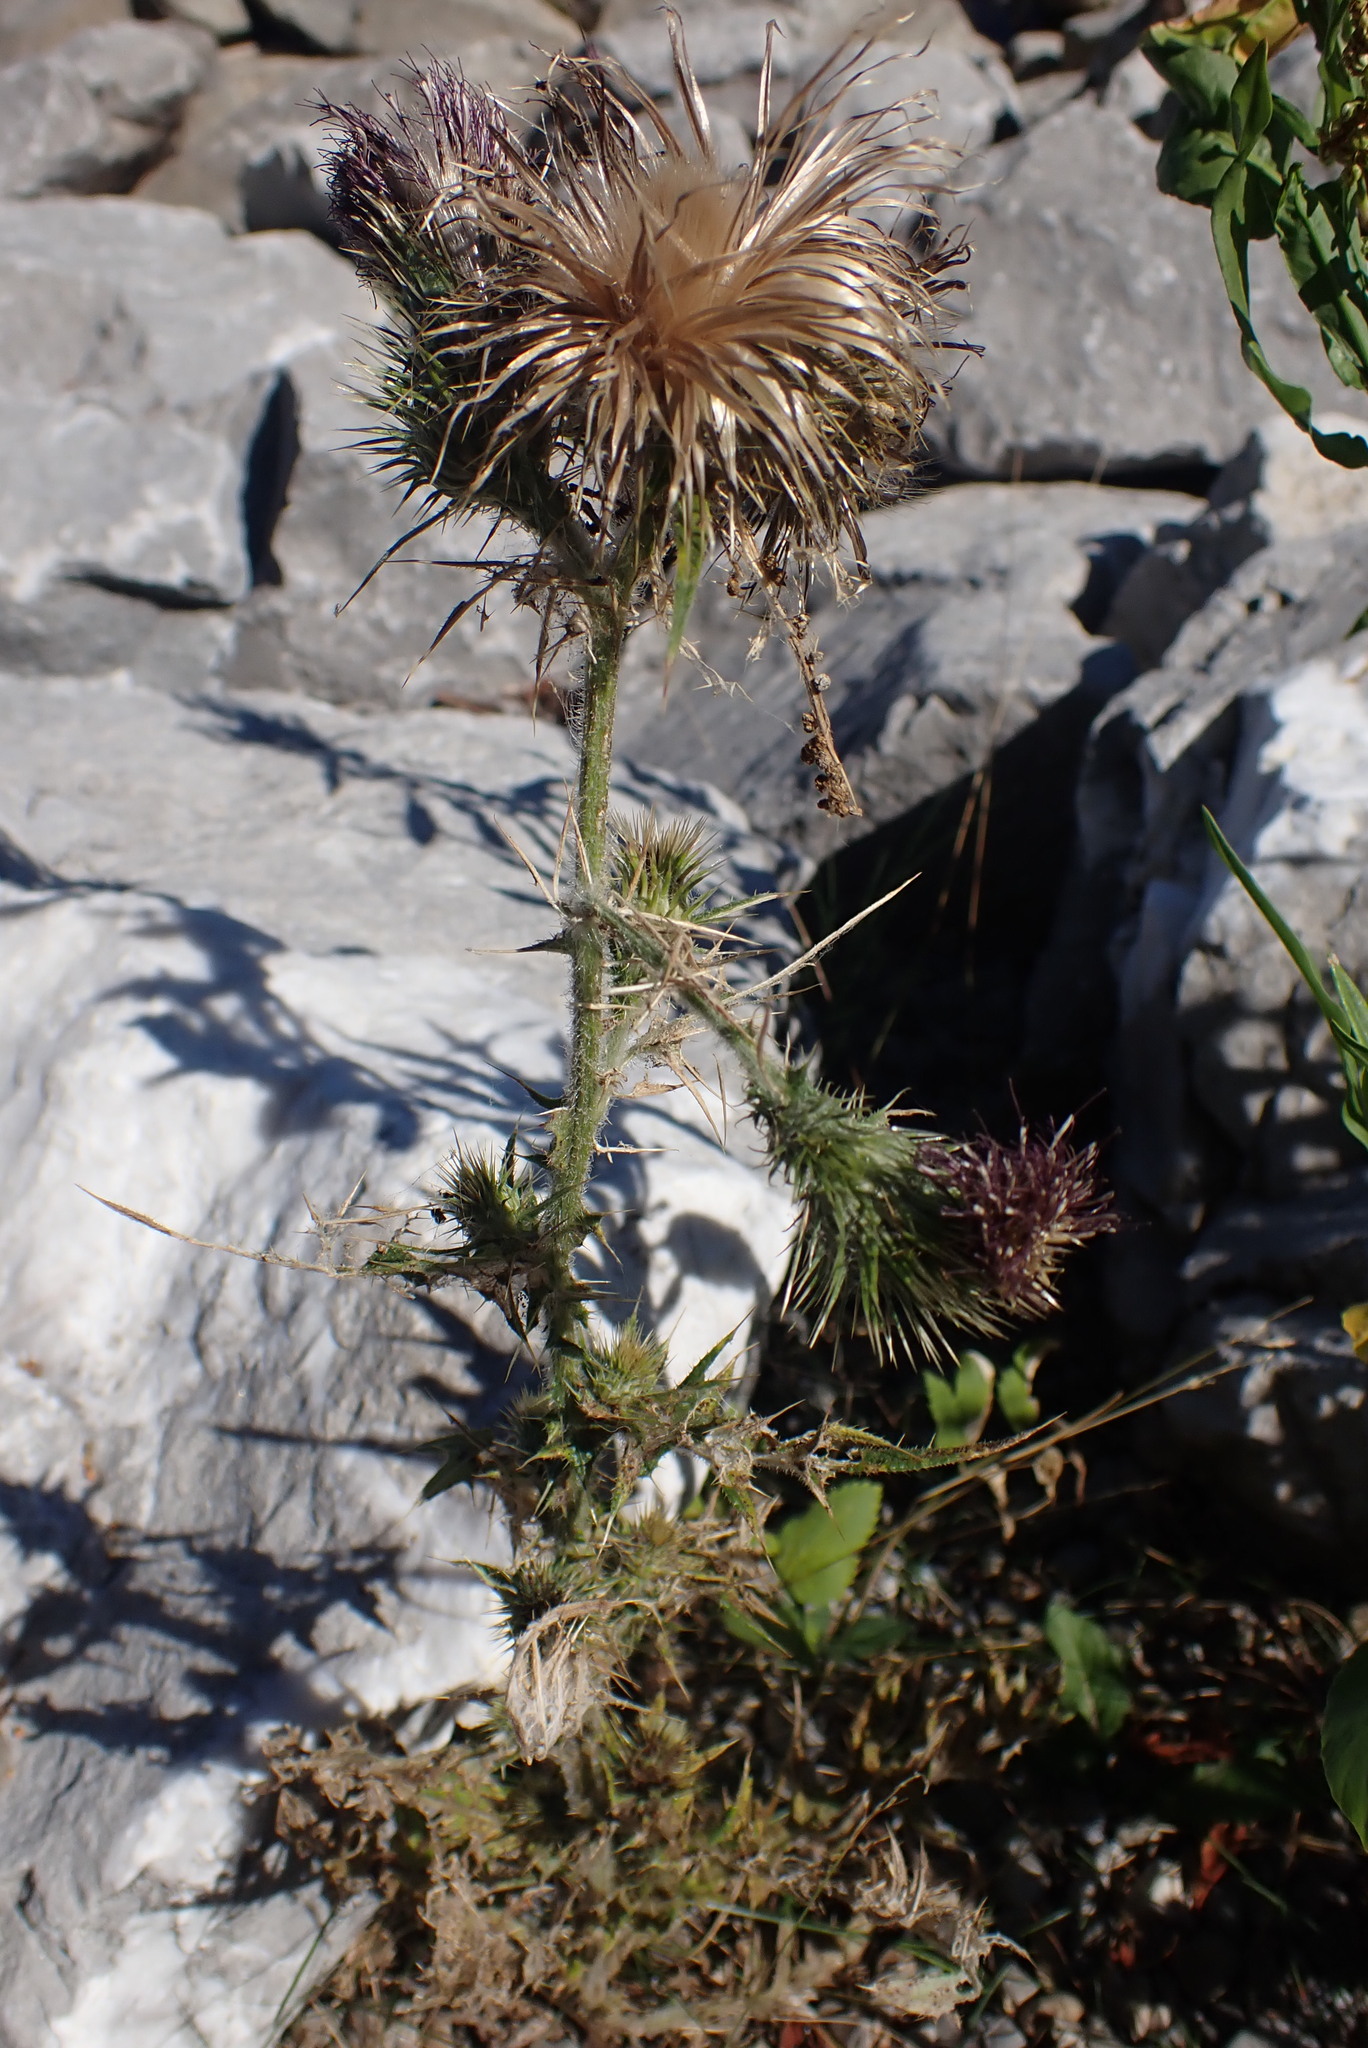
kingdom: Plantae
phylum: Tracheophyta
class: Magnoliopsida
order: Asterales
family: Asteraceae
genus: Cirsium
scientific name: Cirsium vulgare
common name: Bull thistle
